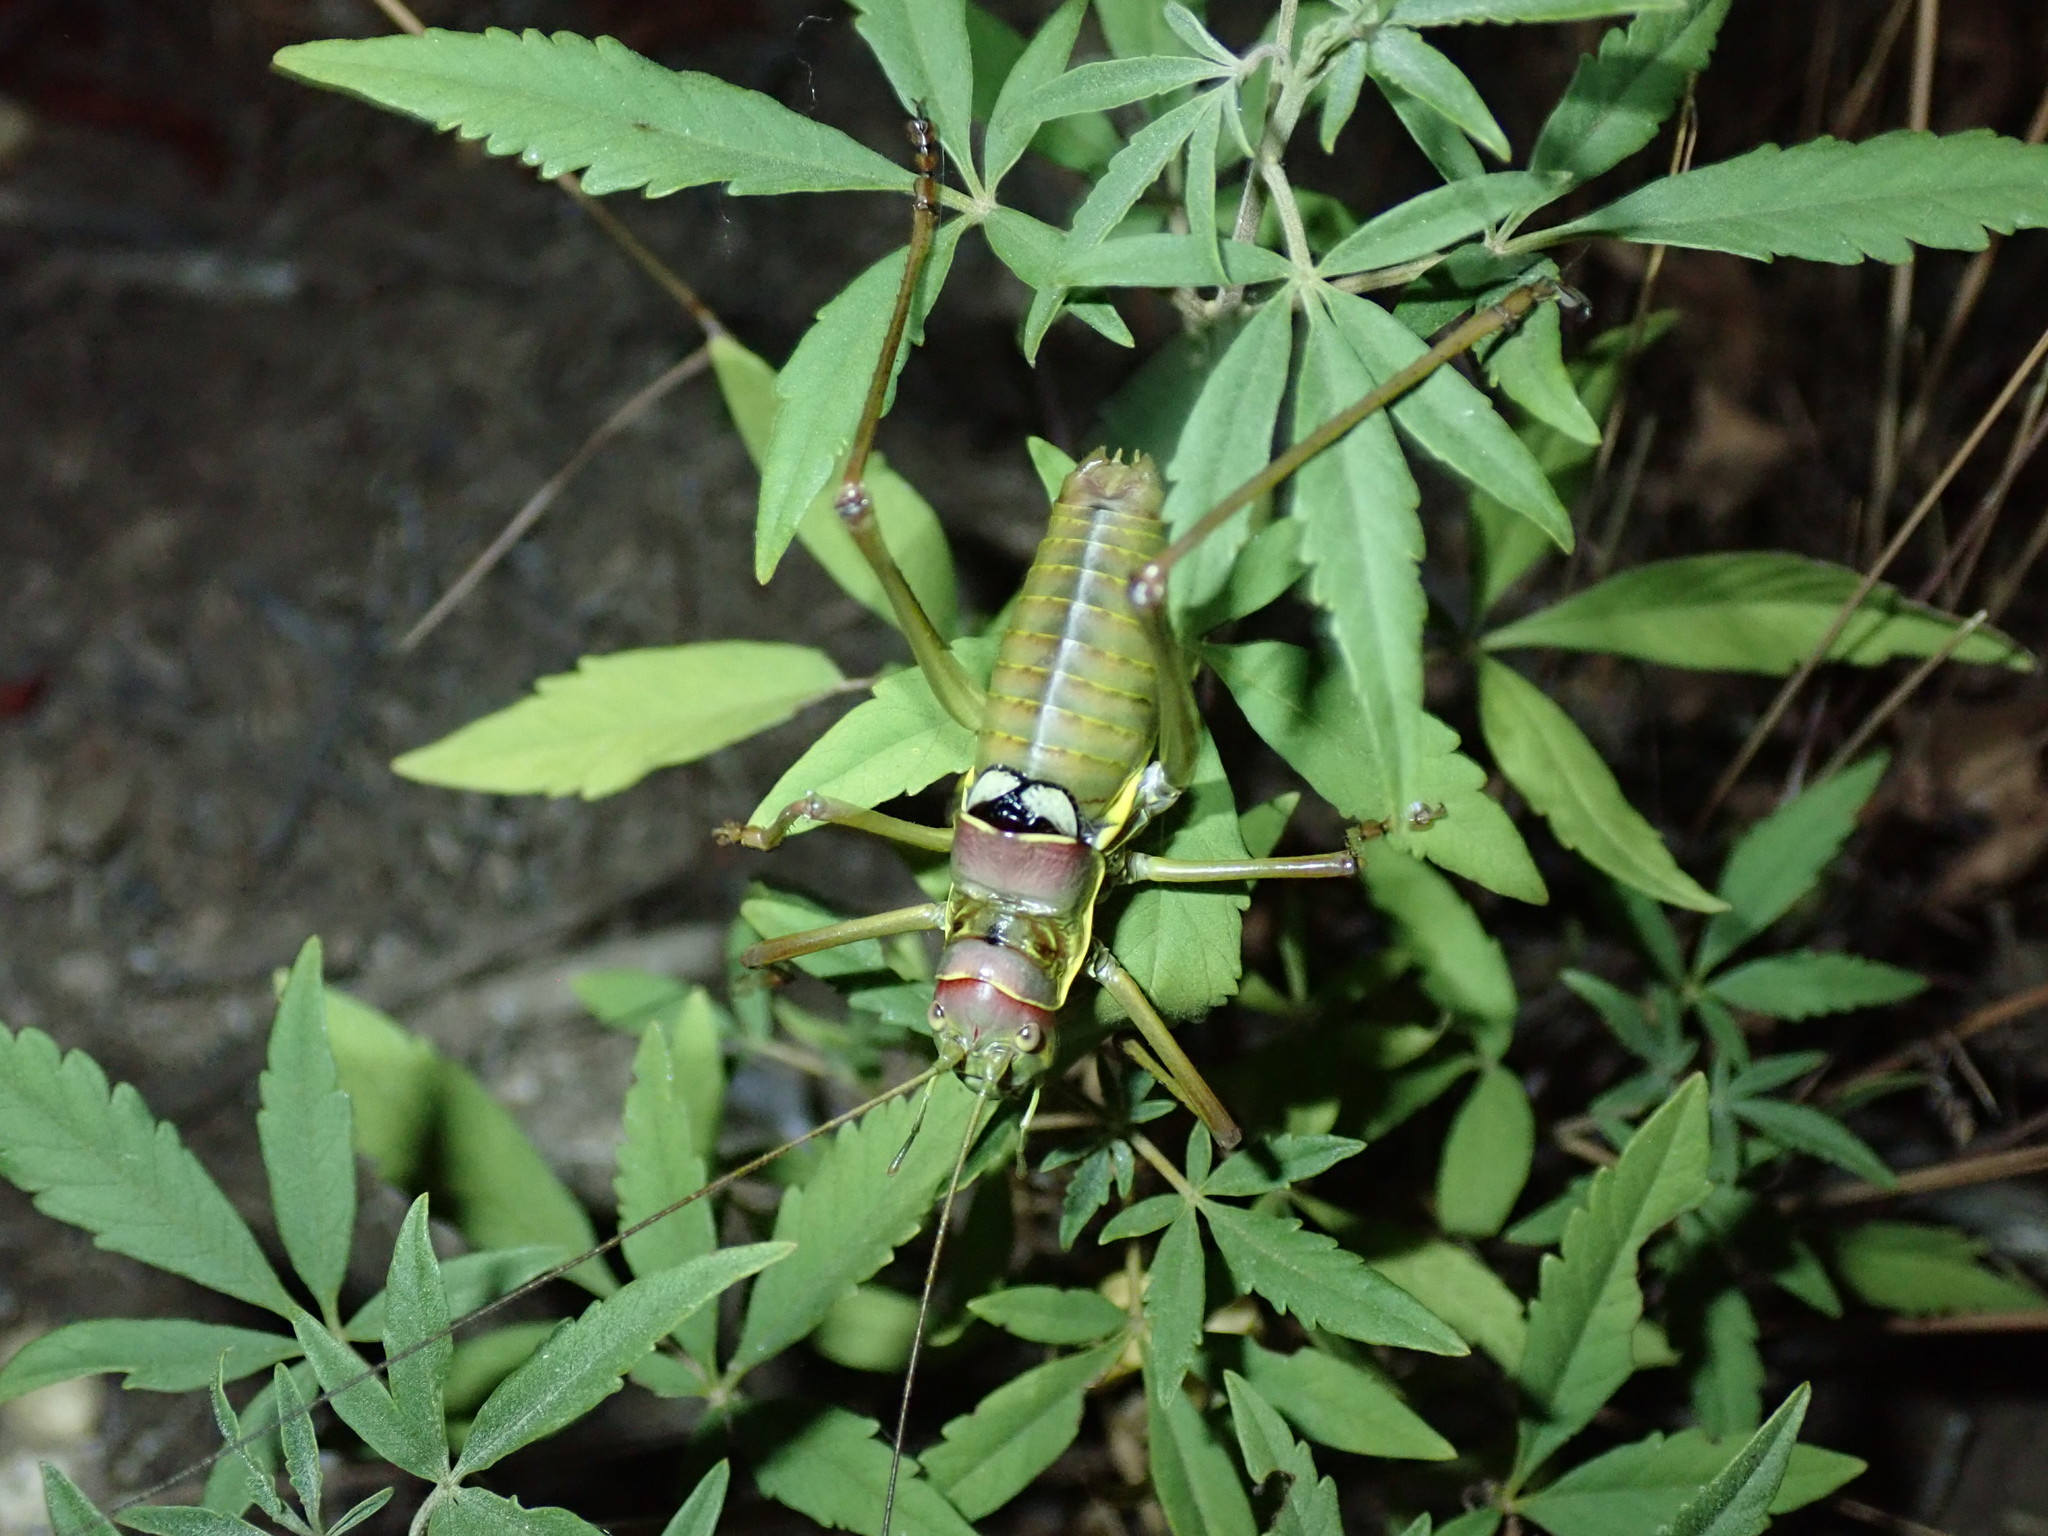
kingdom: Animalia
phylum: Arthropoda
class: Insecta
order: Orthoptera
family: Tettigoniidae
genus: Dinarippiger
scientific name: Dinarippiger discoidalis
